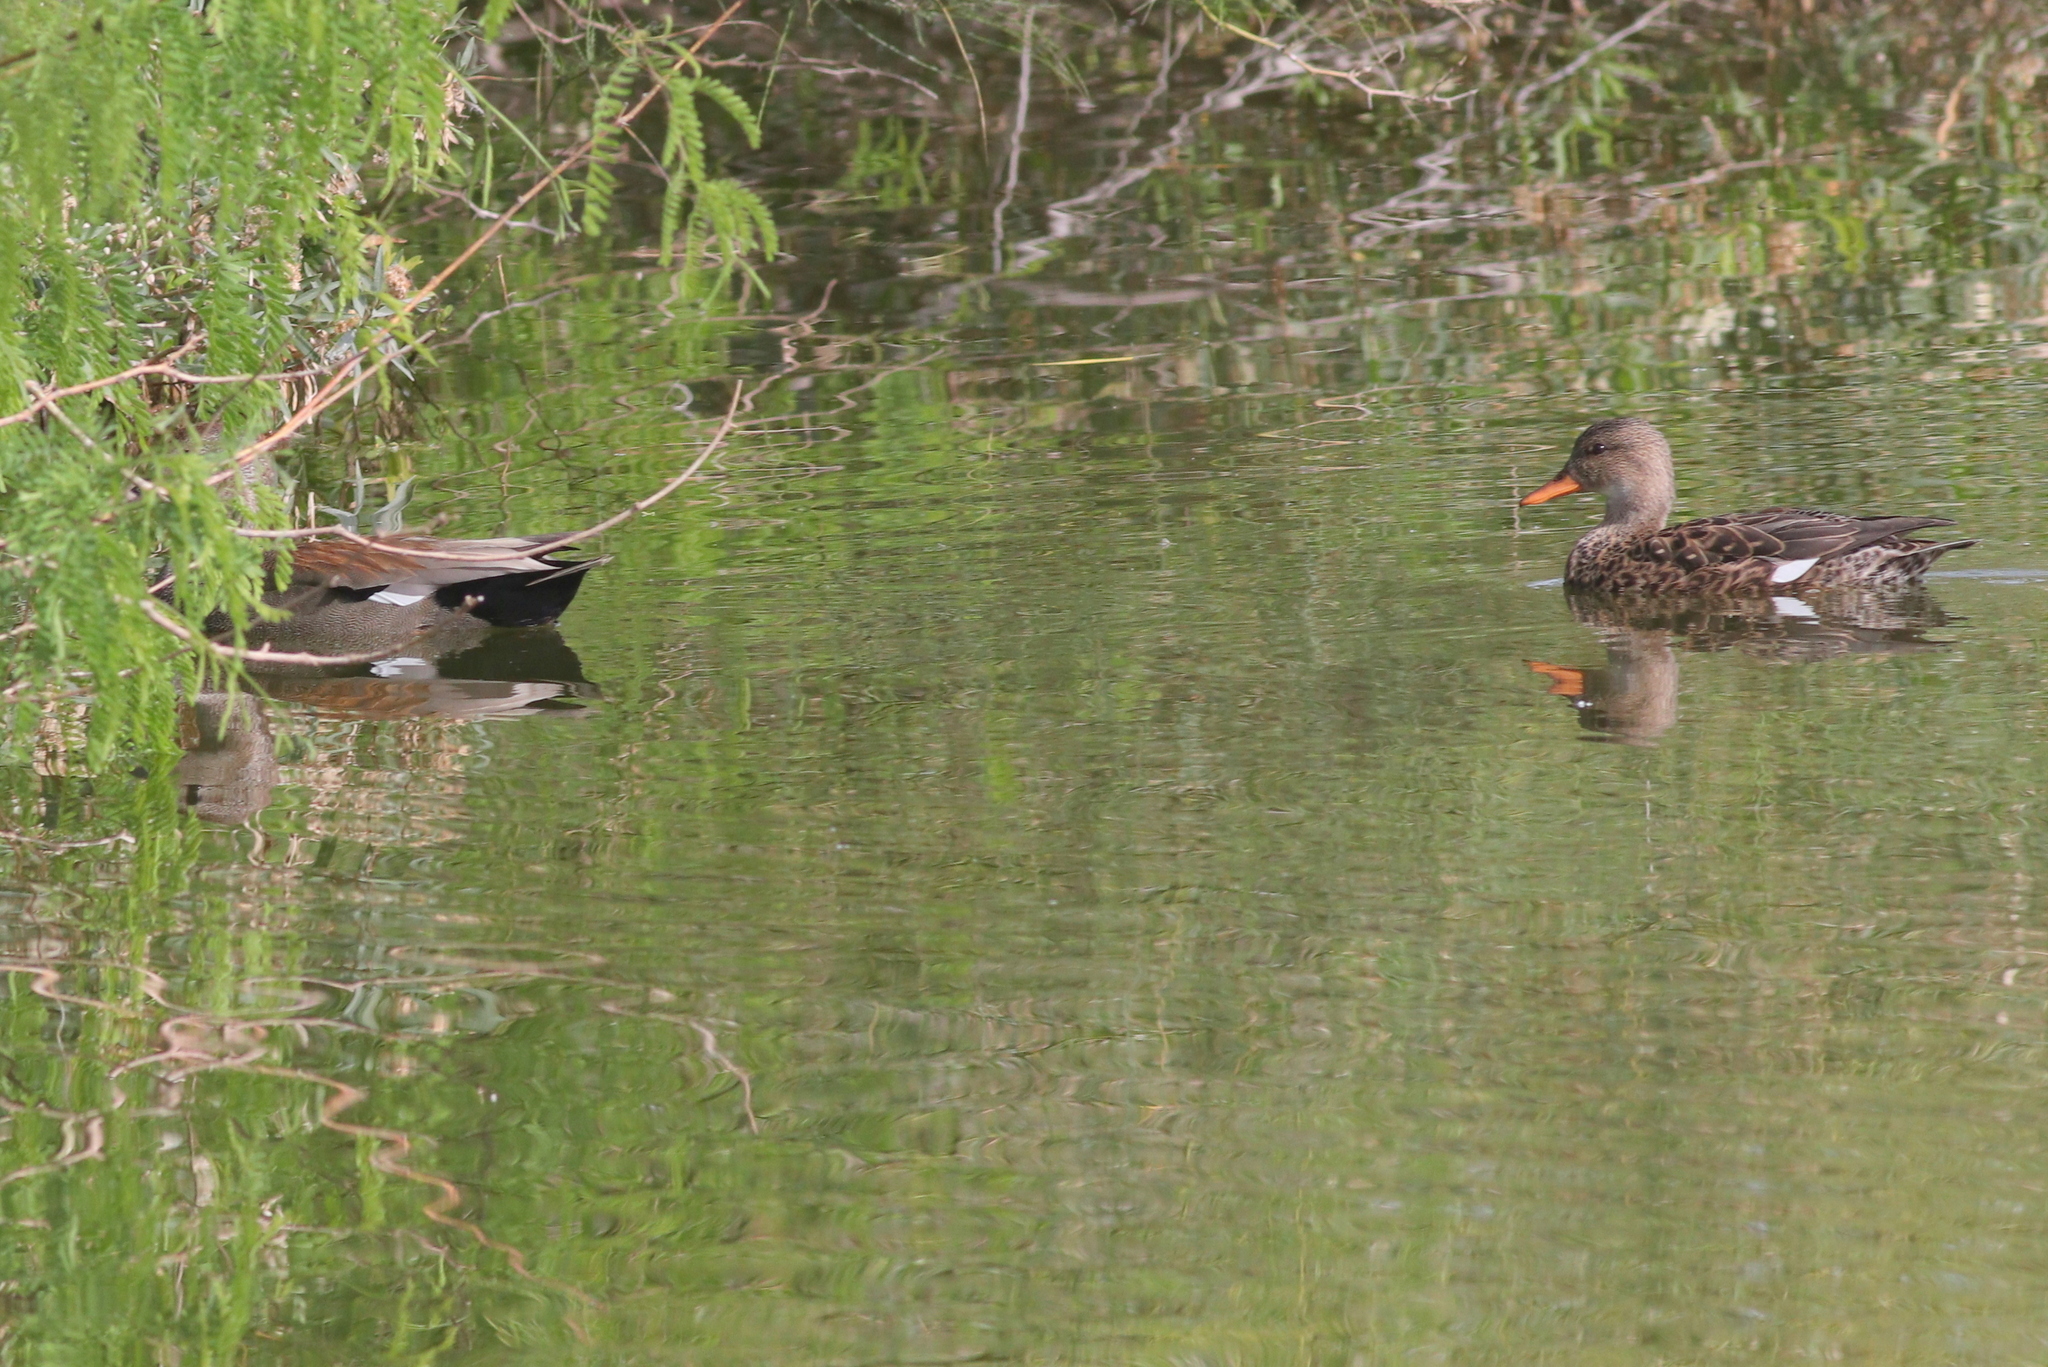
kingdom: Animalia
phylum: Chordata
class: Aves
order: Anseriformes
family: Anatidae
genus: Mareca
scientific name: Mareca strepera
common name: Gadwall
